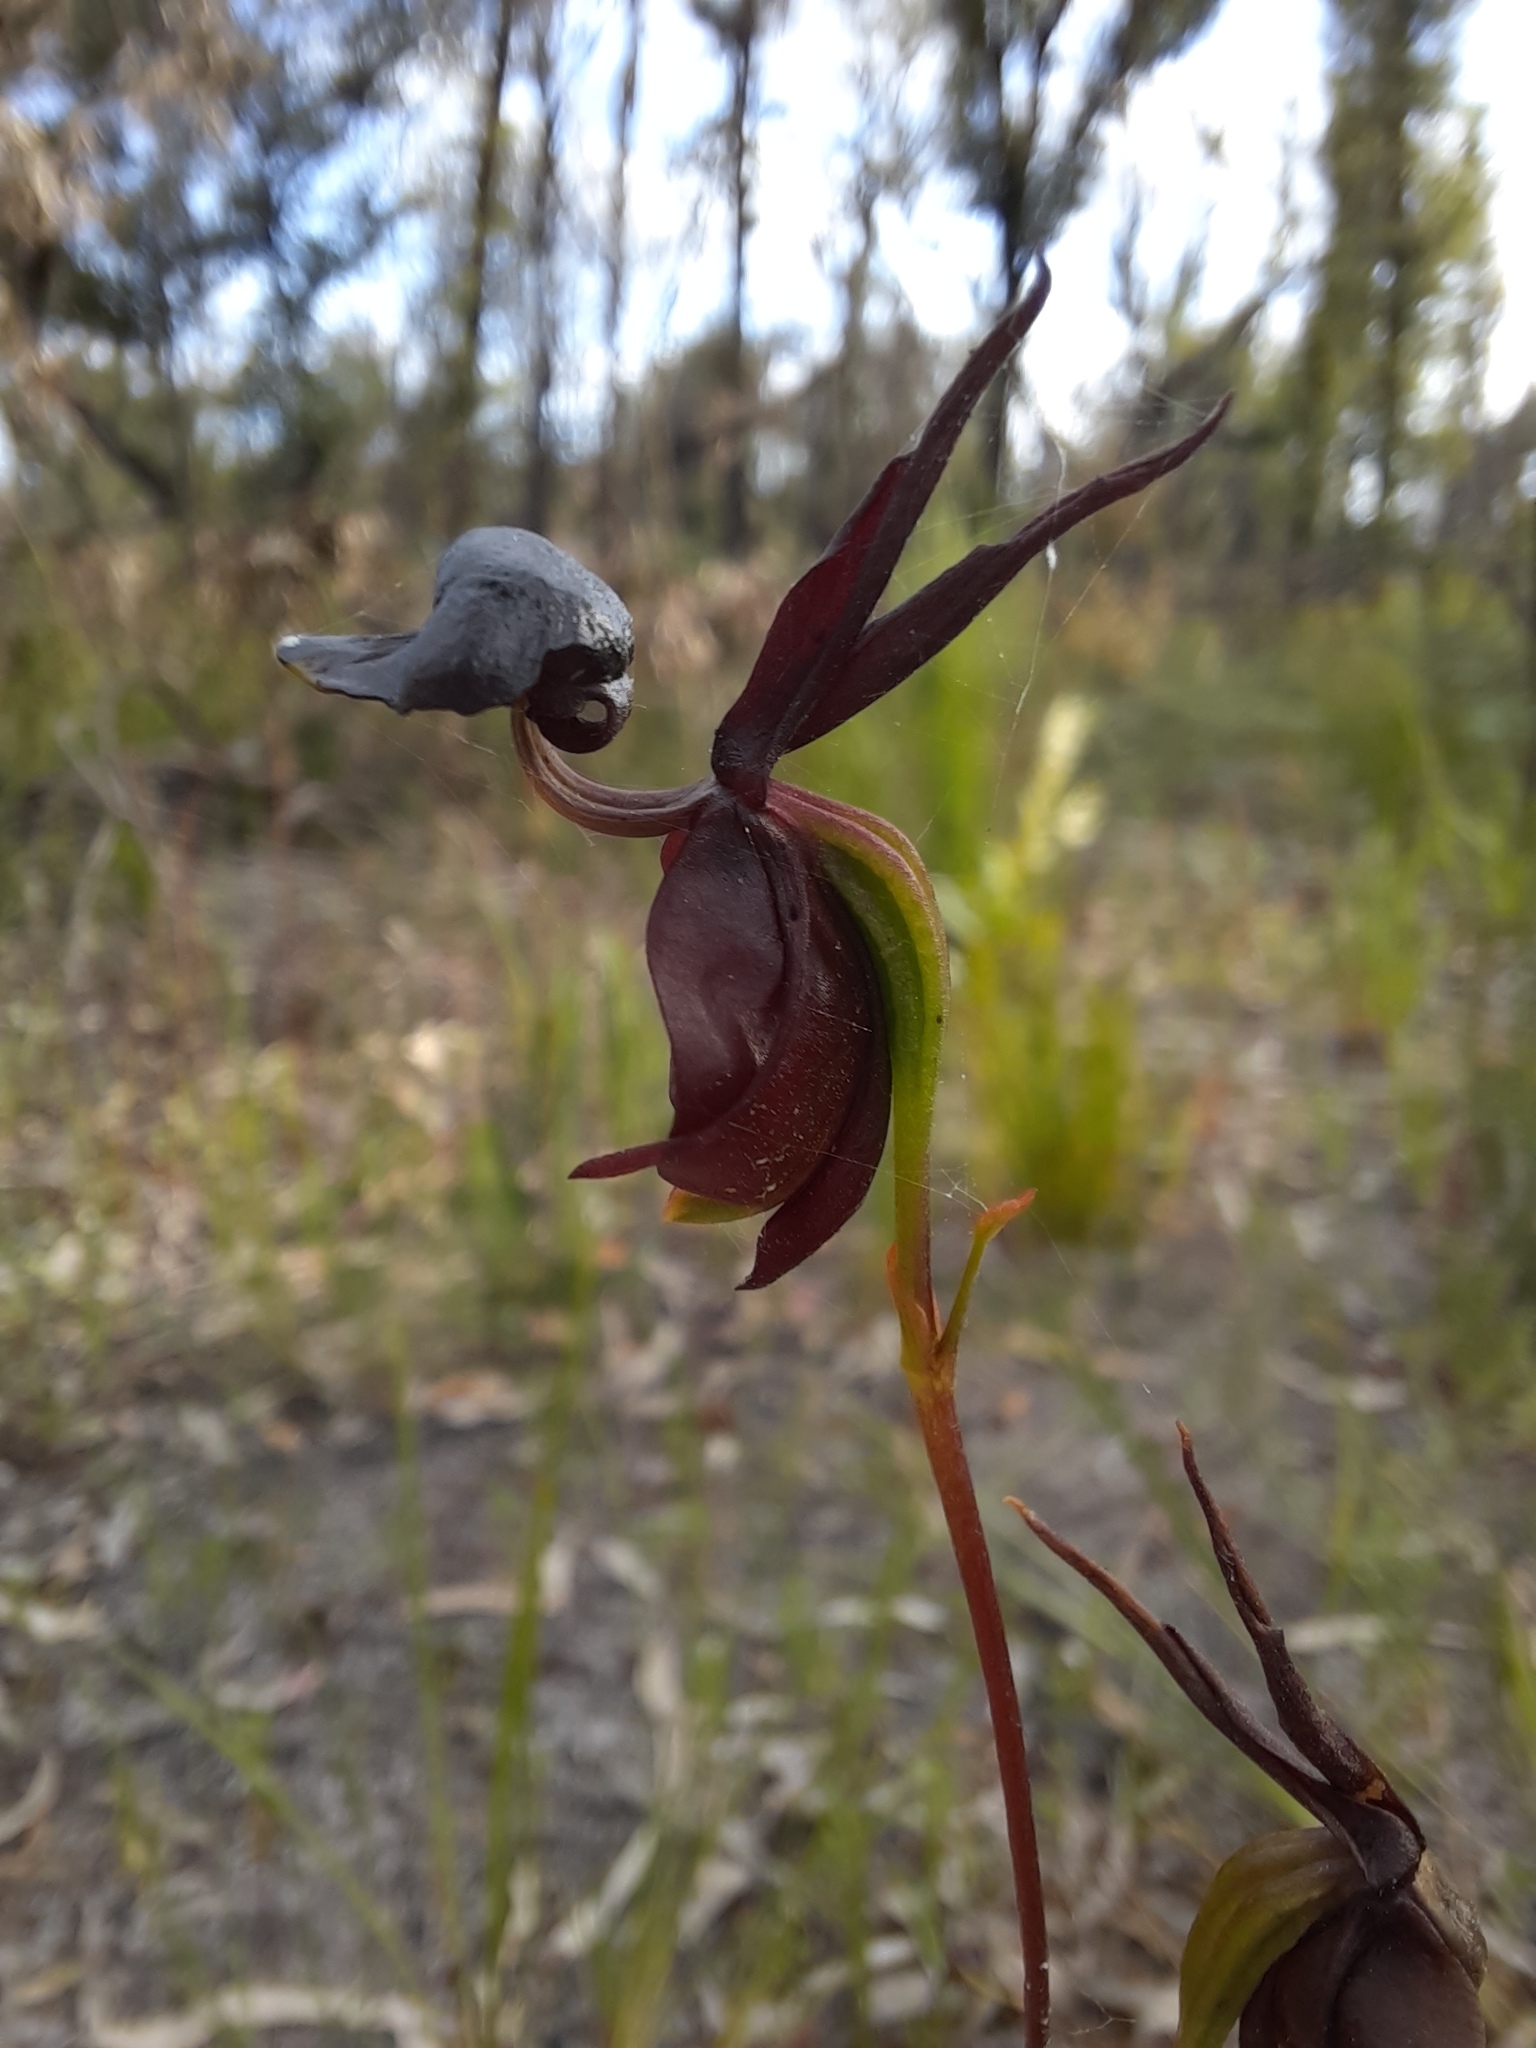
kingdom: Plantae
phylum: Tracheophyta
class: Liliopsida
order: Asparagales
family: Orchidaceae
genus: Caleana
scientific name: Caleana major
